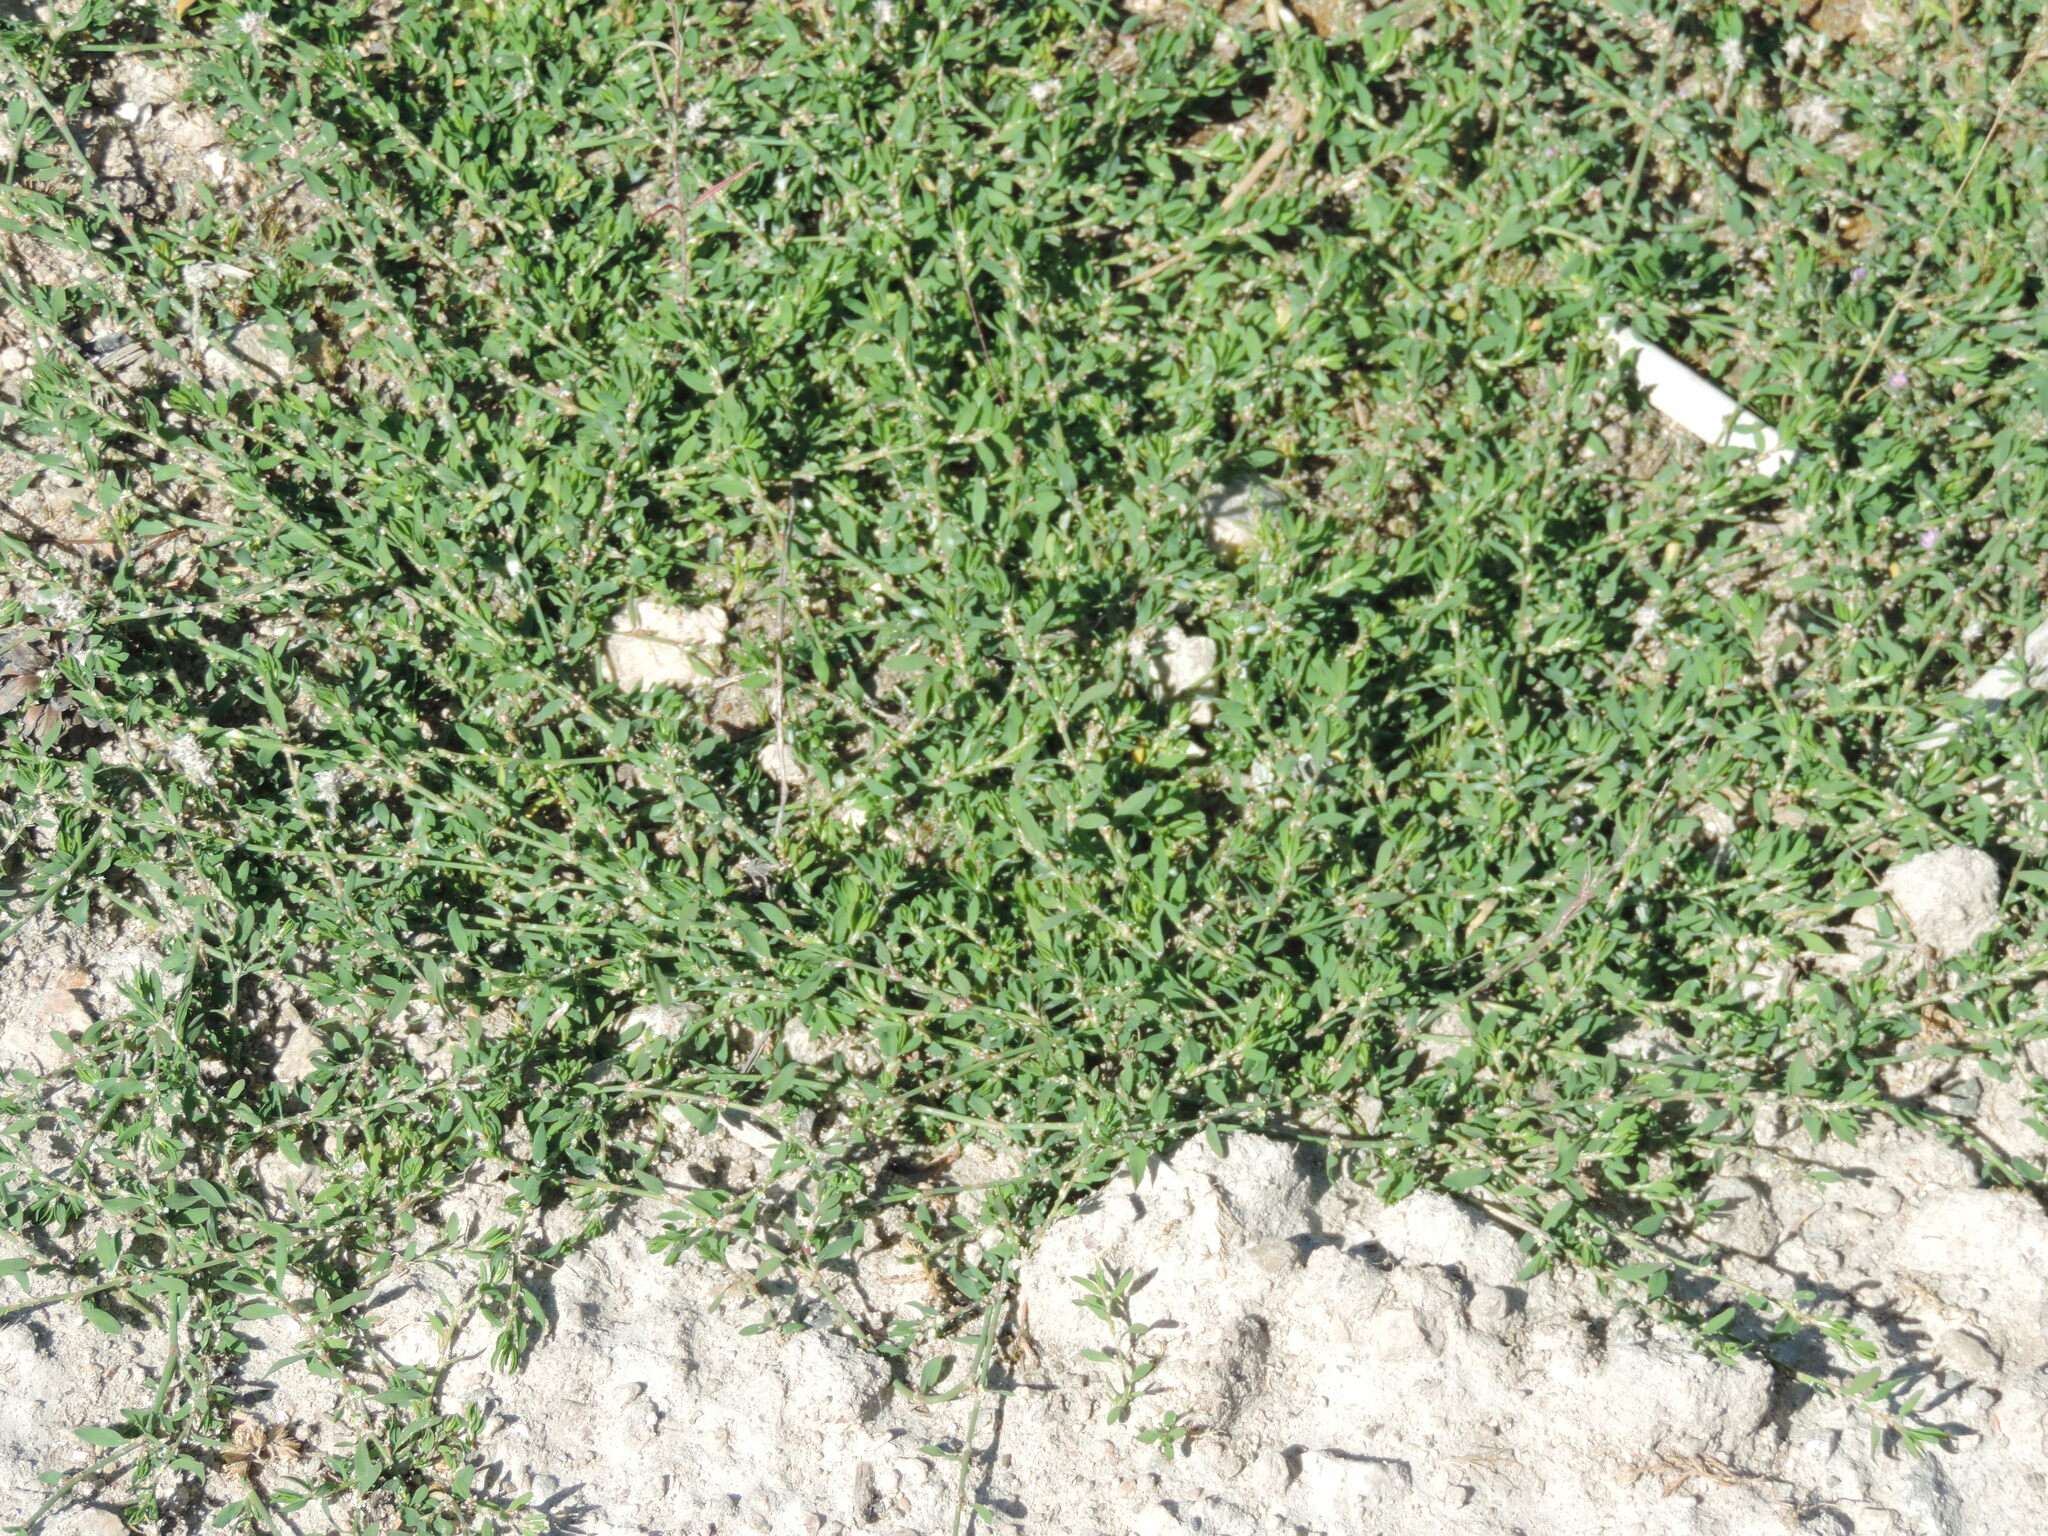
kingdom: Plantae
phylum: Tracheophyta
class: Magnoliopsida
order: Caryophyllales
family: Polygonaceae
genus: Polygonum
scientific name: Polygonum aviculare
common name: Prostrate knotweed
